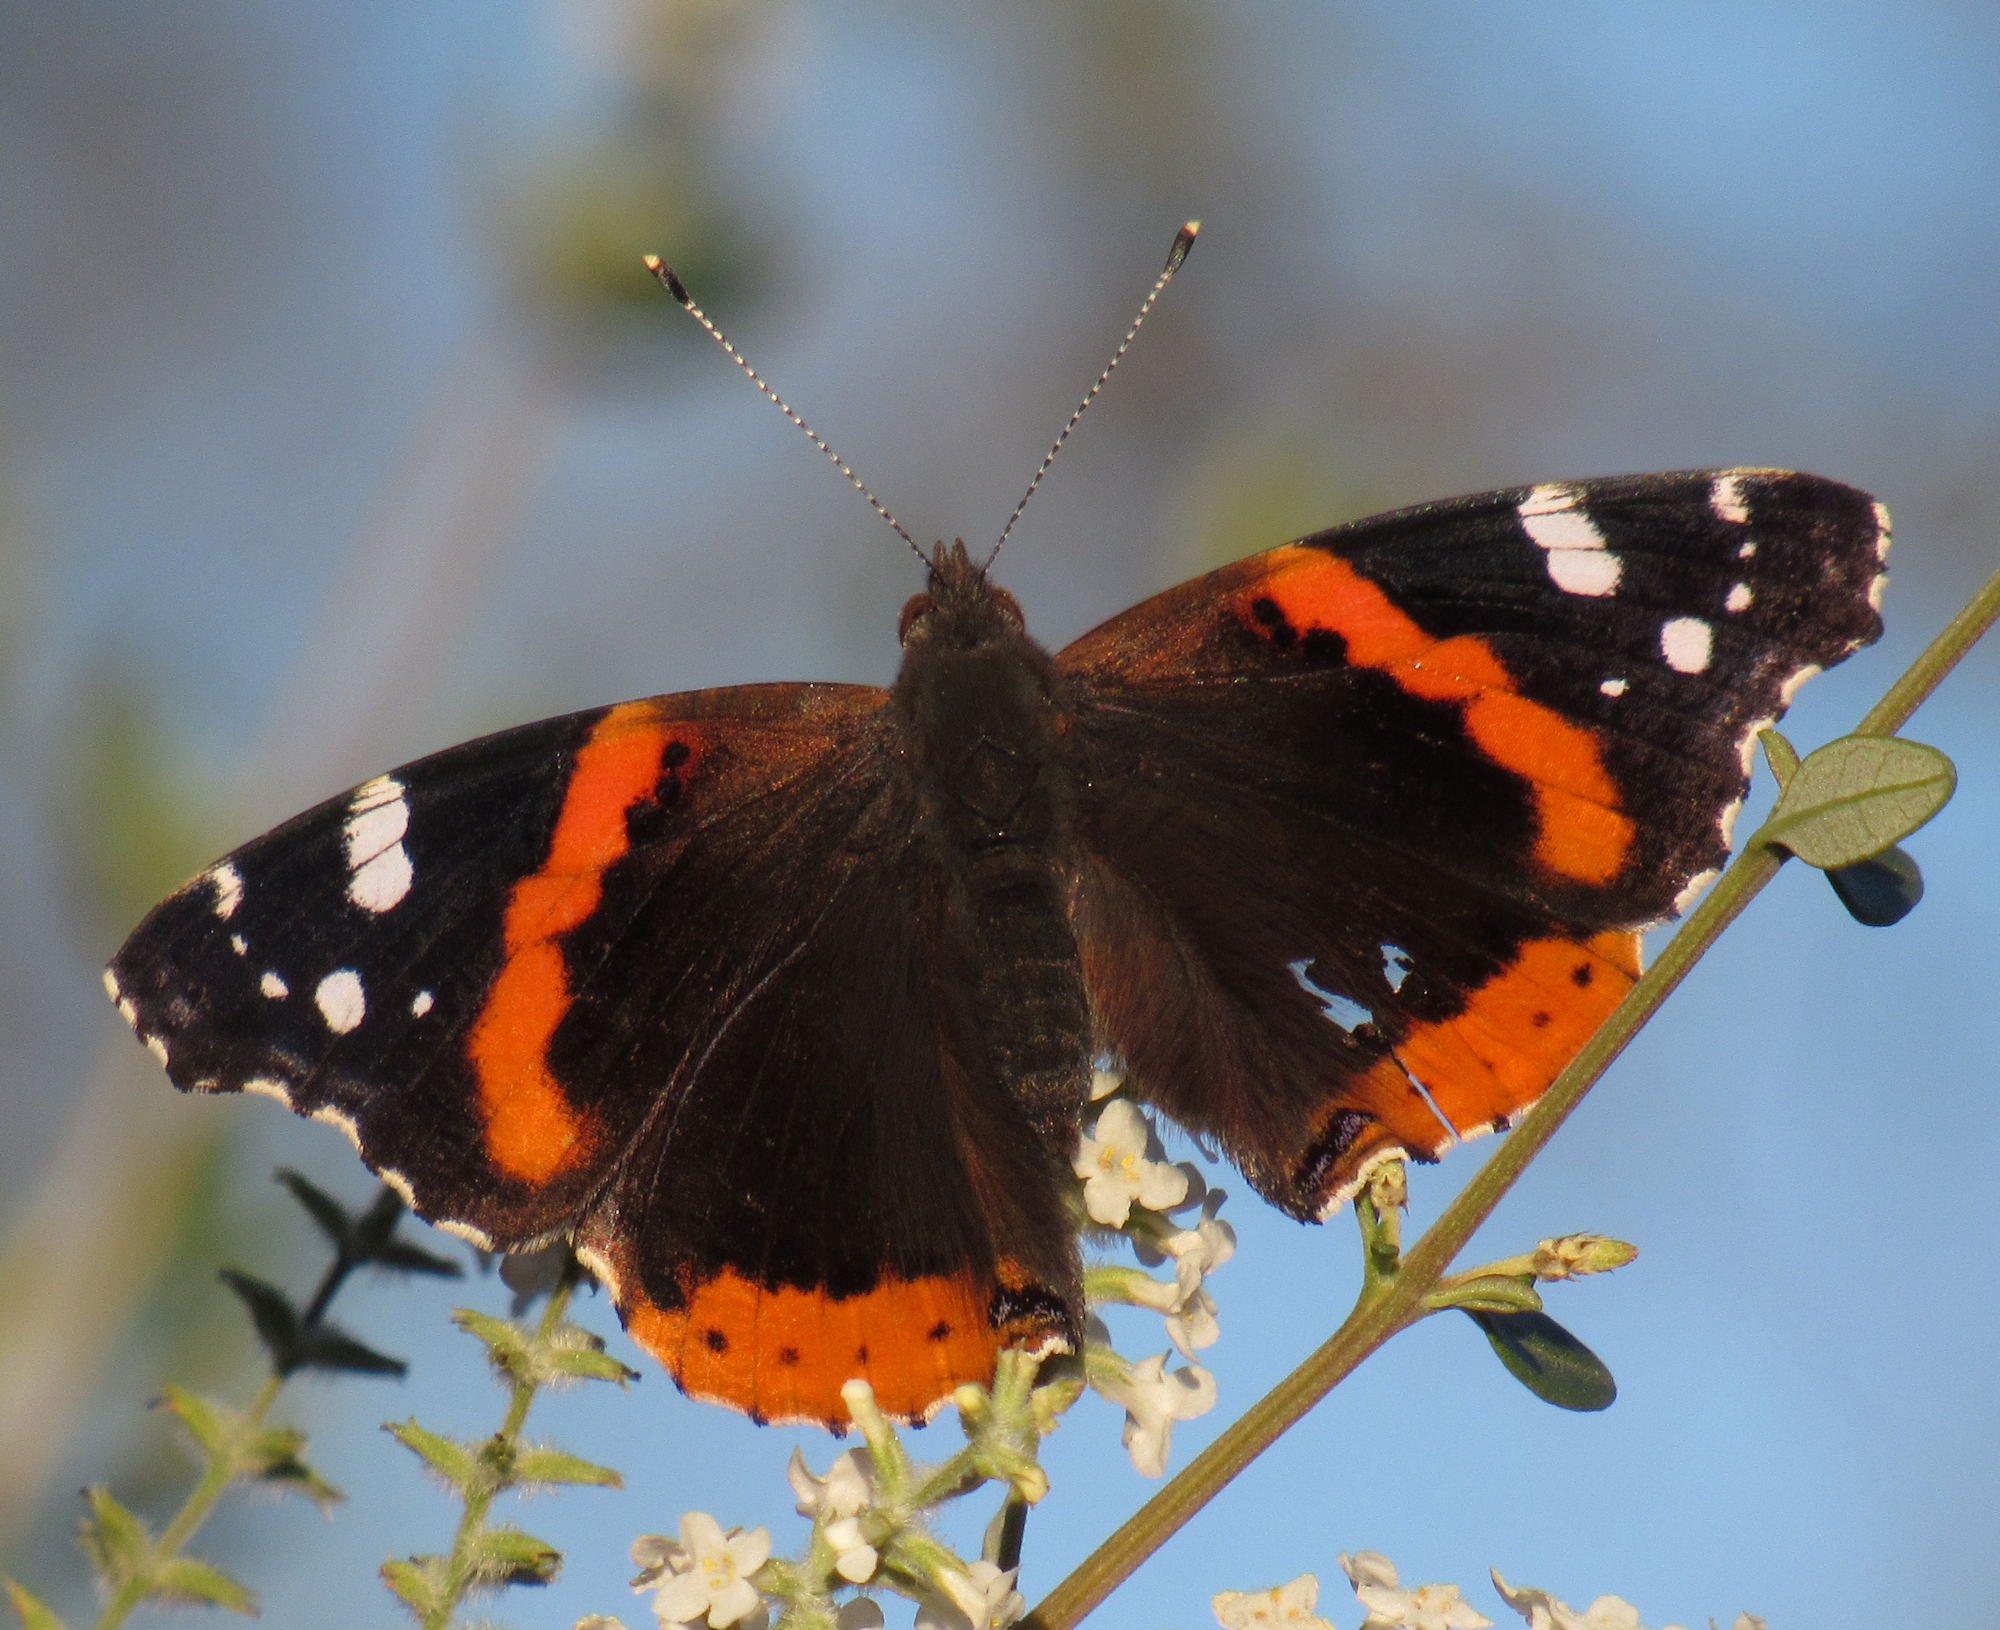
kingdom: Animalia
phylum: Arthropoda
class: Insecta
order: Lepidoptera
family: Nymphalidae
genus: Vanessa
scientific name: Vanessa atalanta
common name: Red admiral
